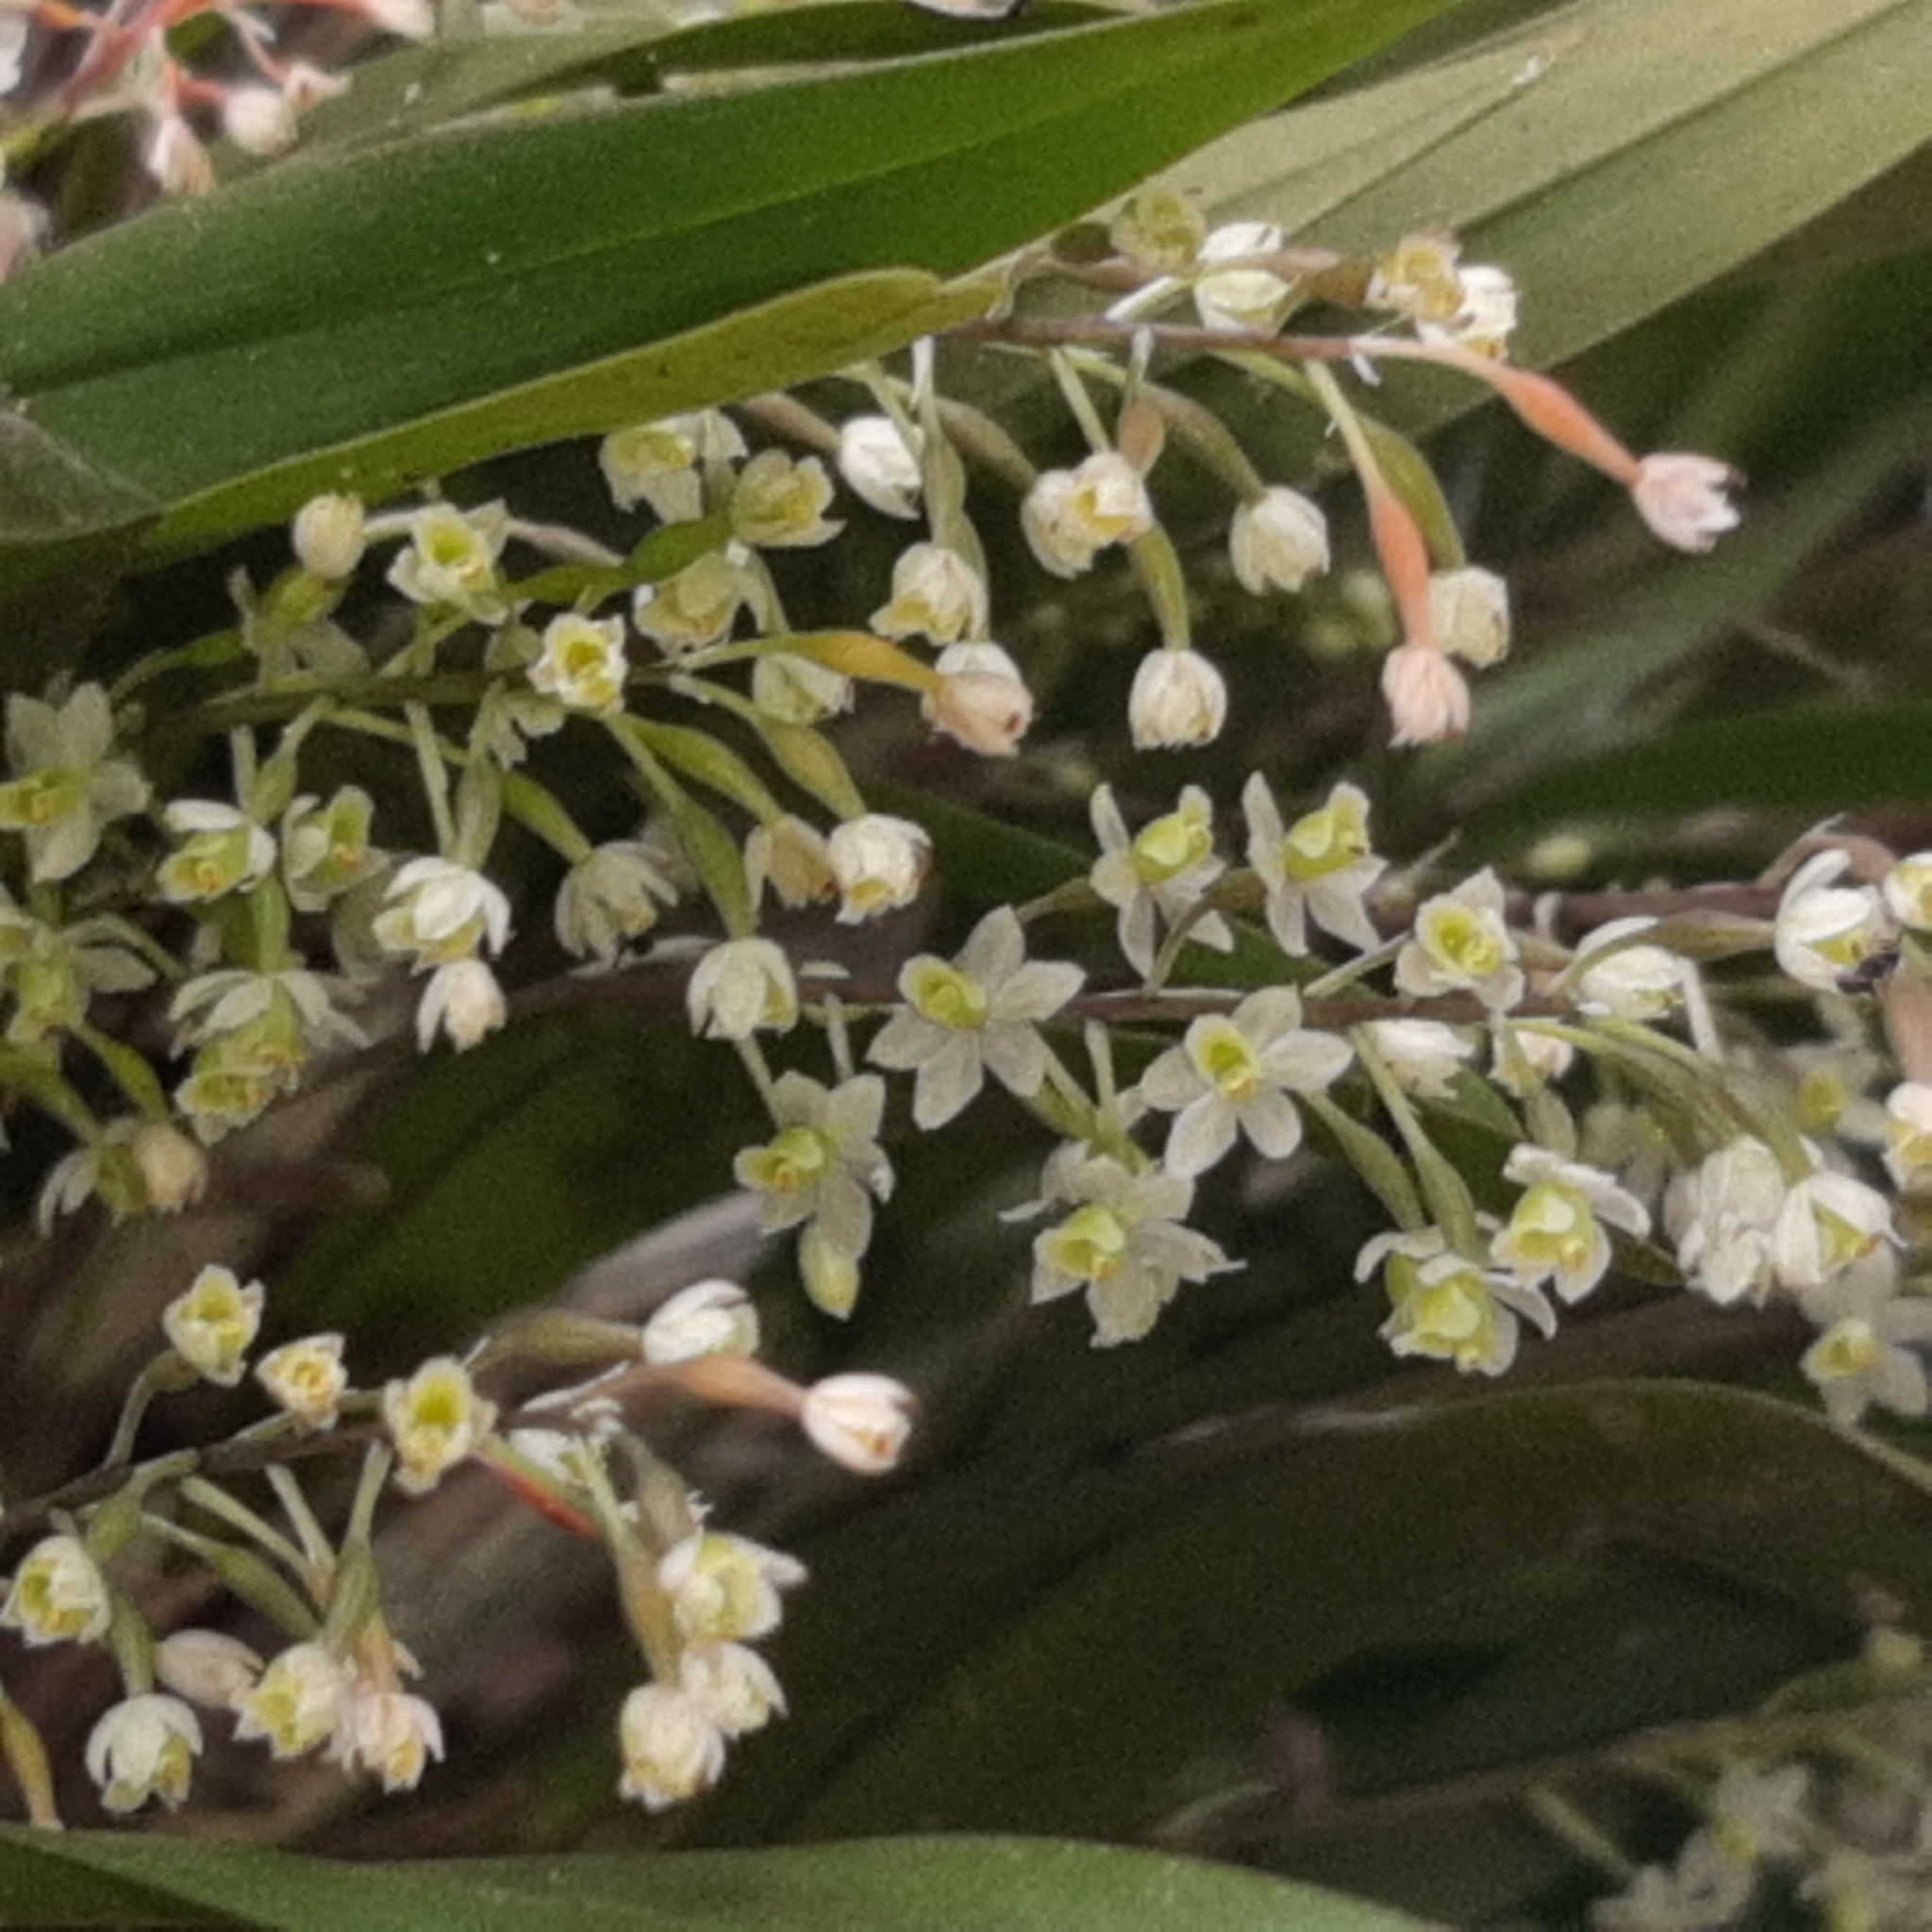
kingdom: Plantae
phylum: Tracheophyta
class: Liliopsida
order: Asparagales
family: Orchidaceae
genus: Scaphyglottis
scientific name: Scaphyglottis micrantha
